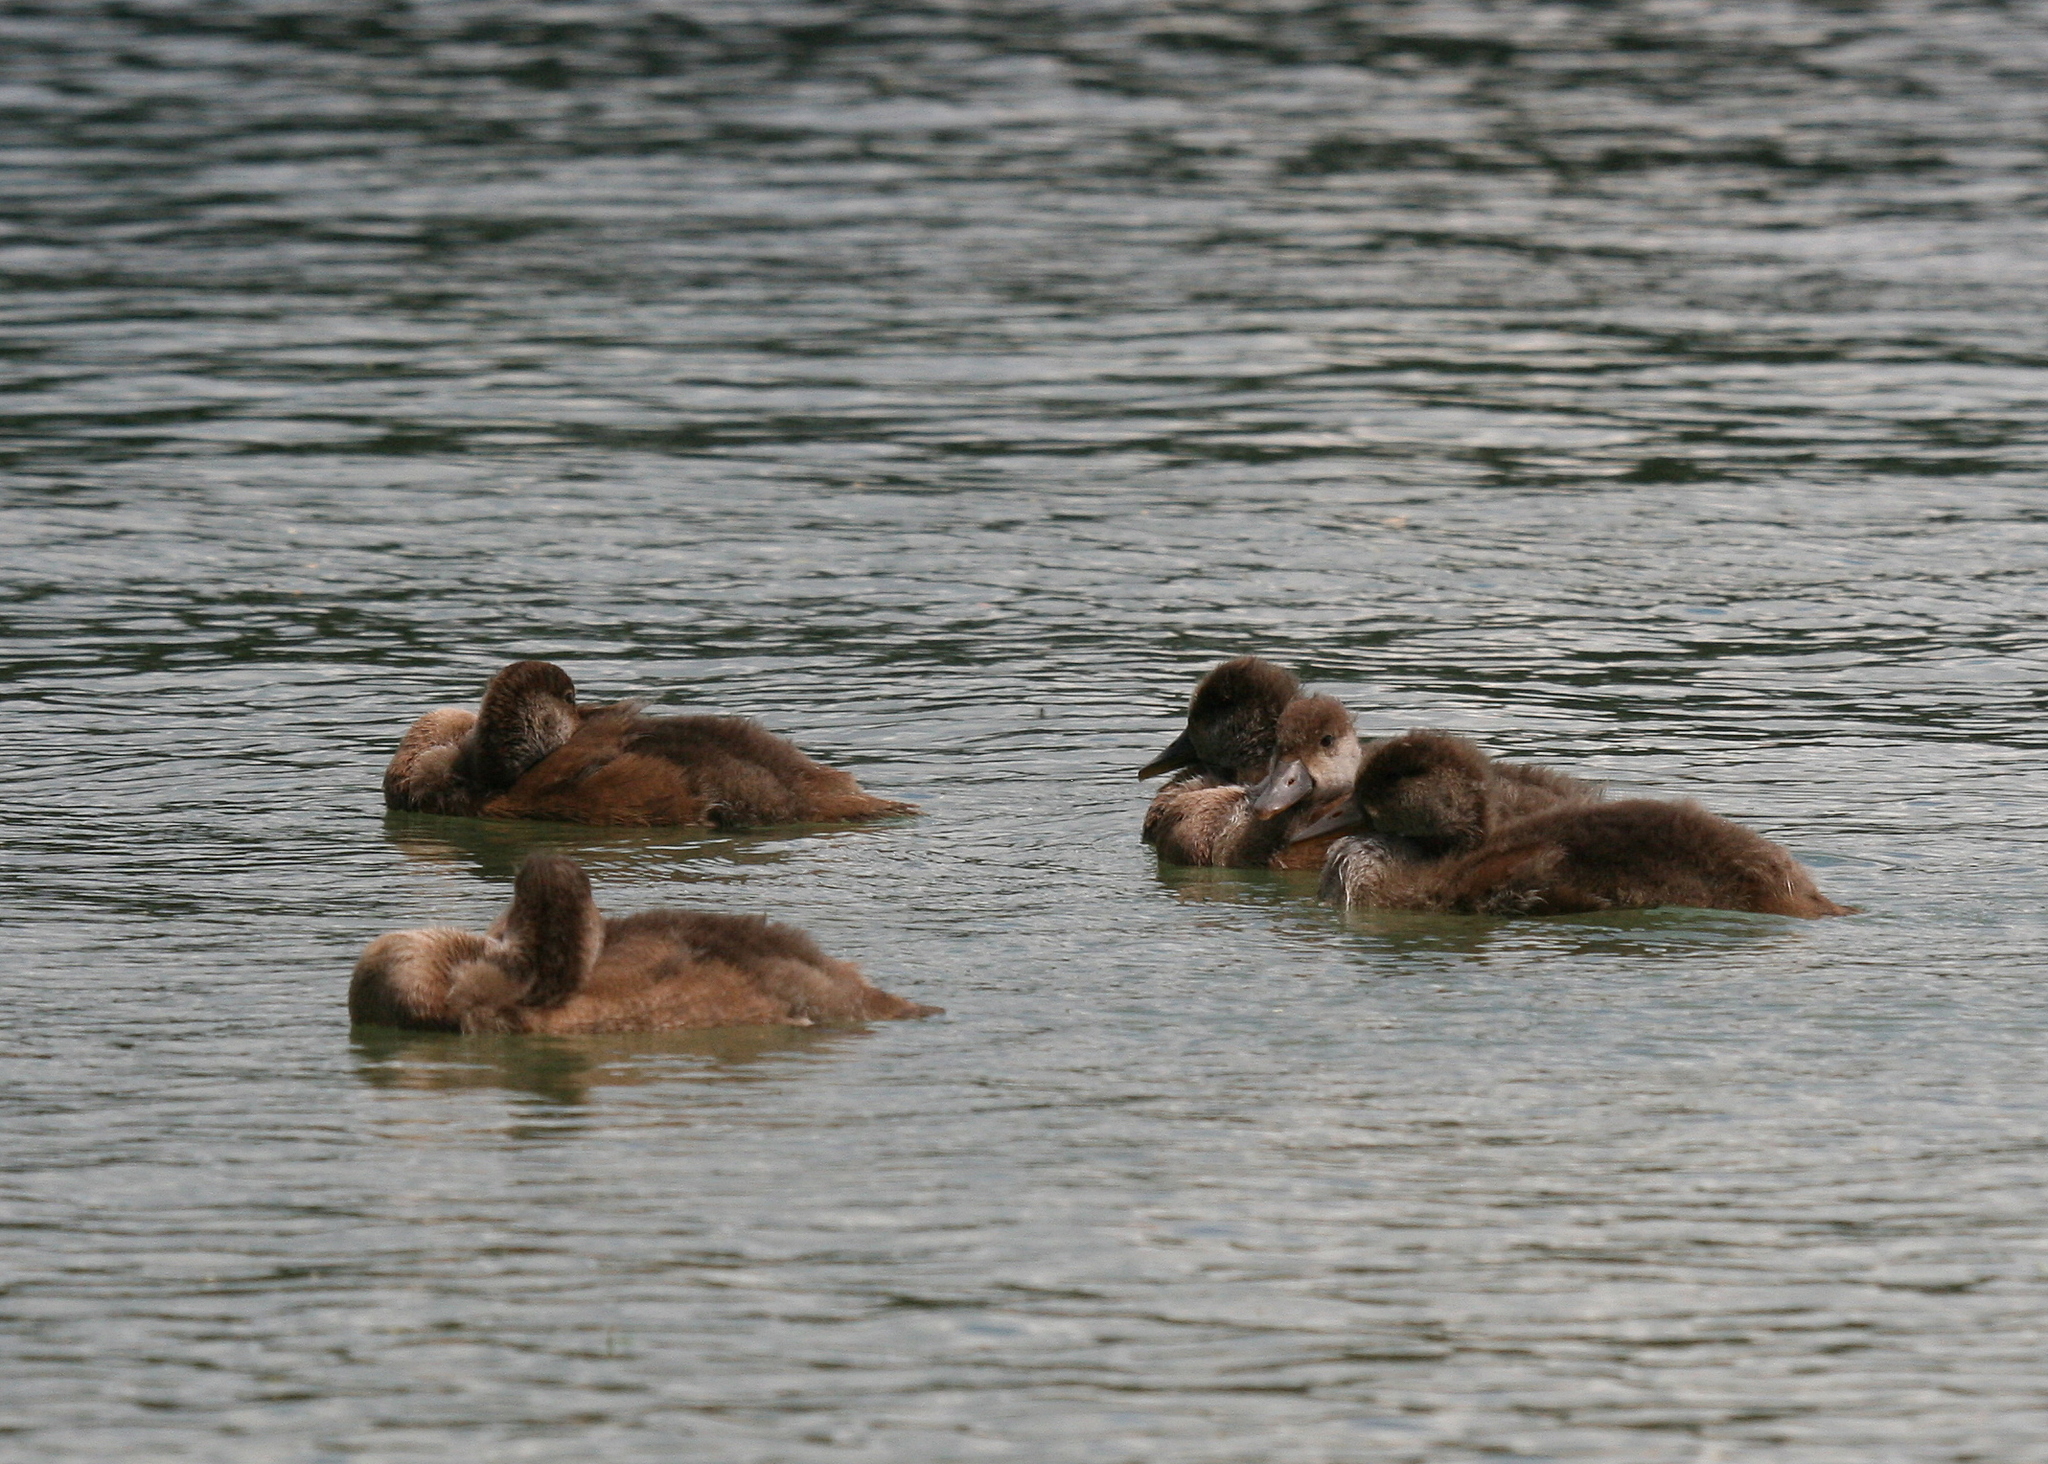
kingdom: Animalia
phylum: Chordata
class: Aves
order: Anseriformes
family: Anatidae
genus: Netta
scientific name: Netta rufina
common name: Red-crested pochard
